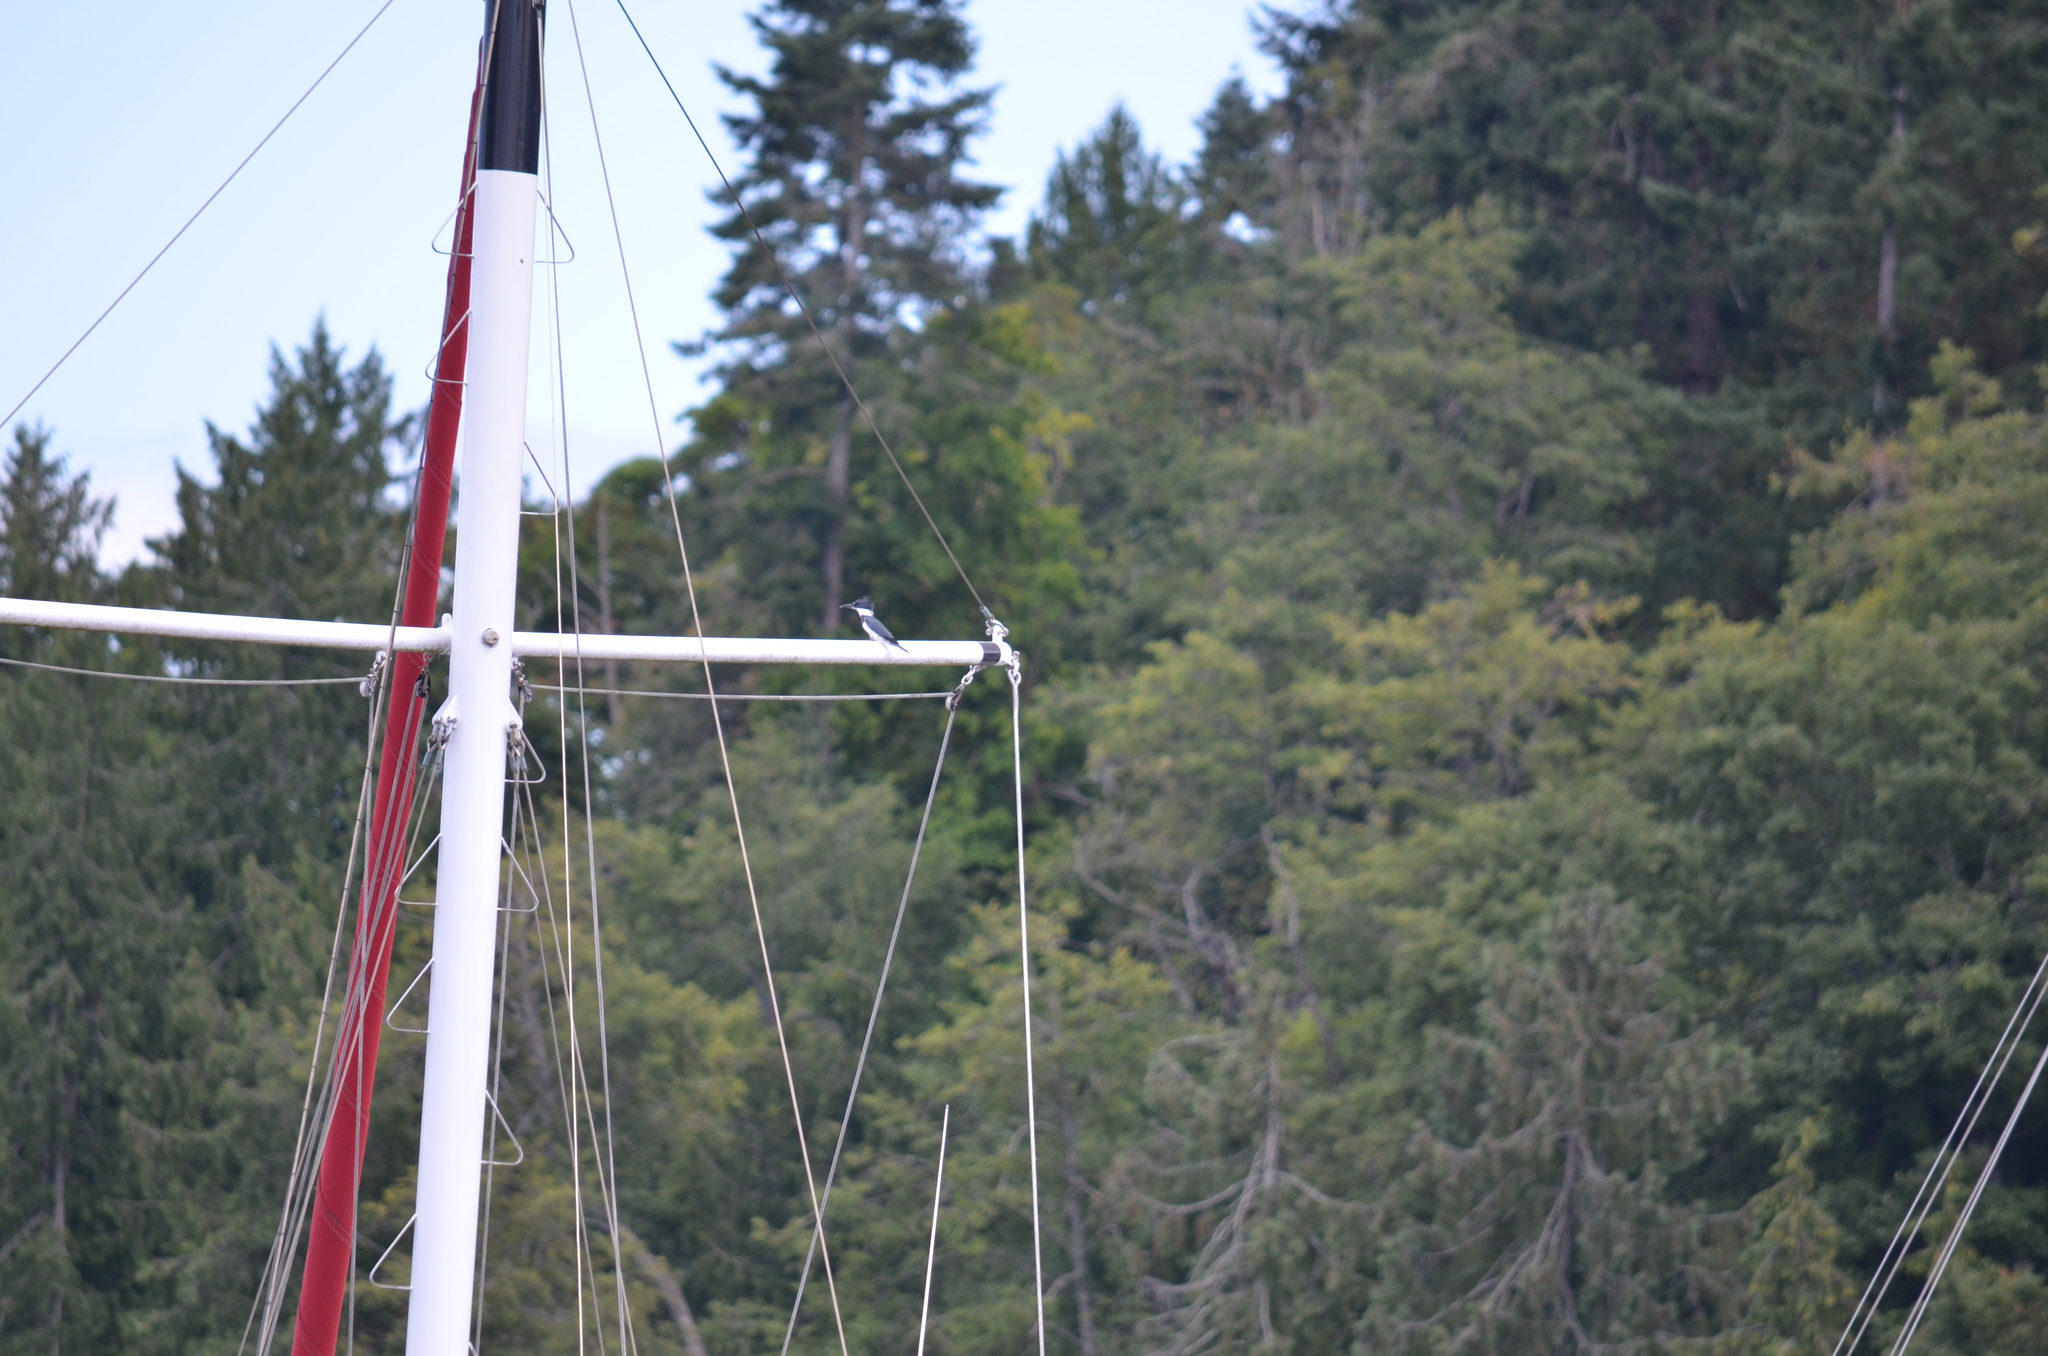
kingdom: Animalia
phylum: Chordata
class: Aves
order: Coraciiformes
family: Alcedinidae
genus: Megaceryle
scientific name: Megaceryle alcyon
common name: Belted kingfisher
